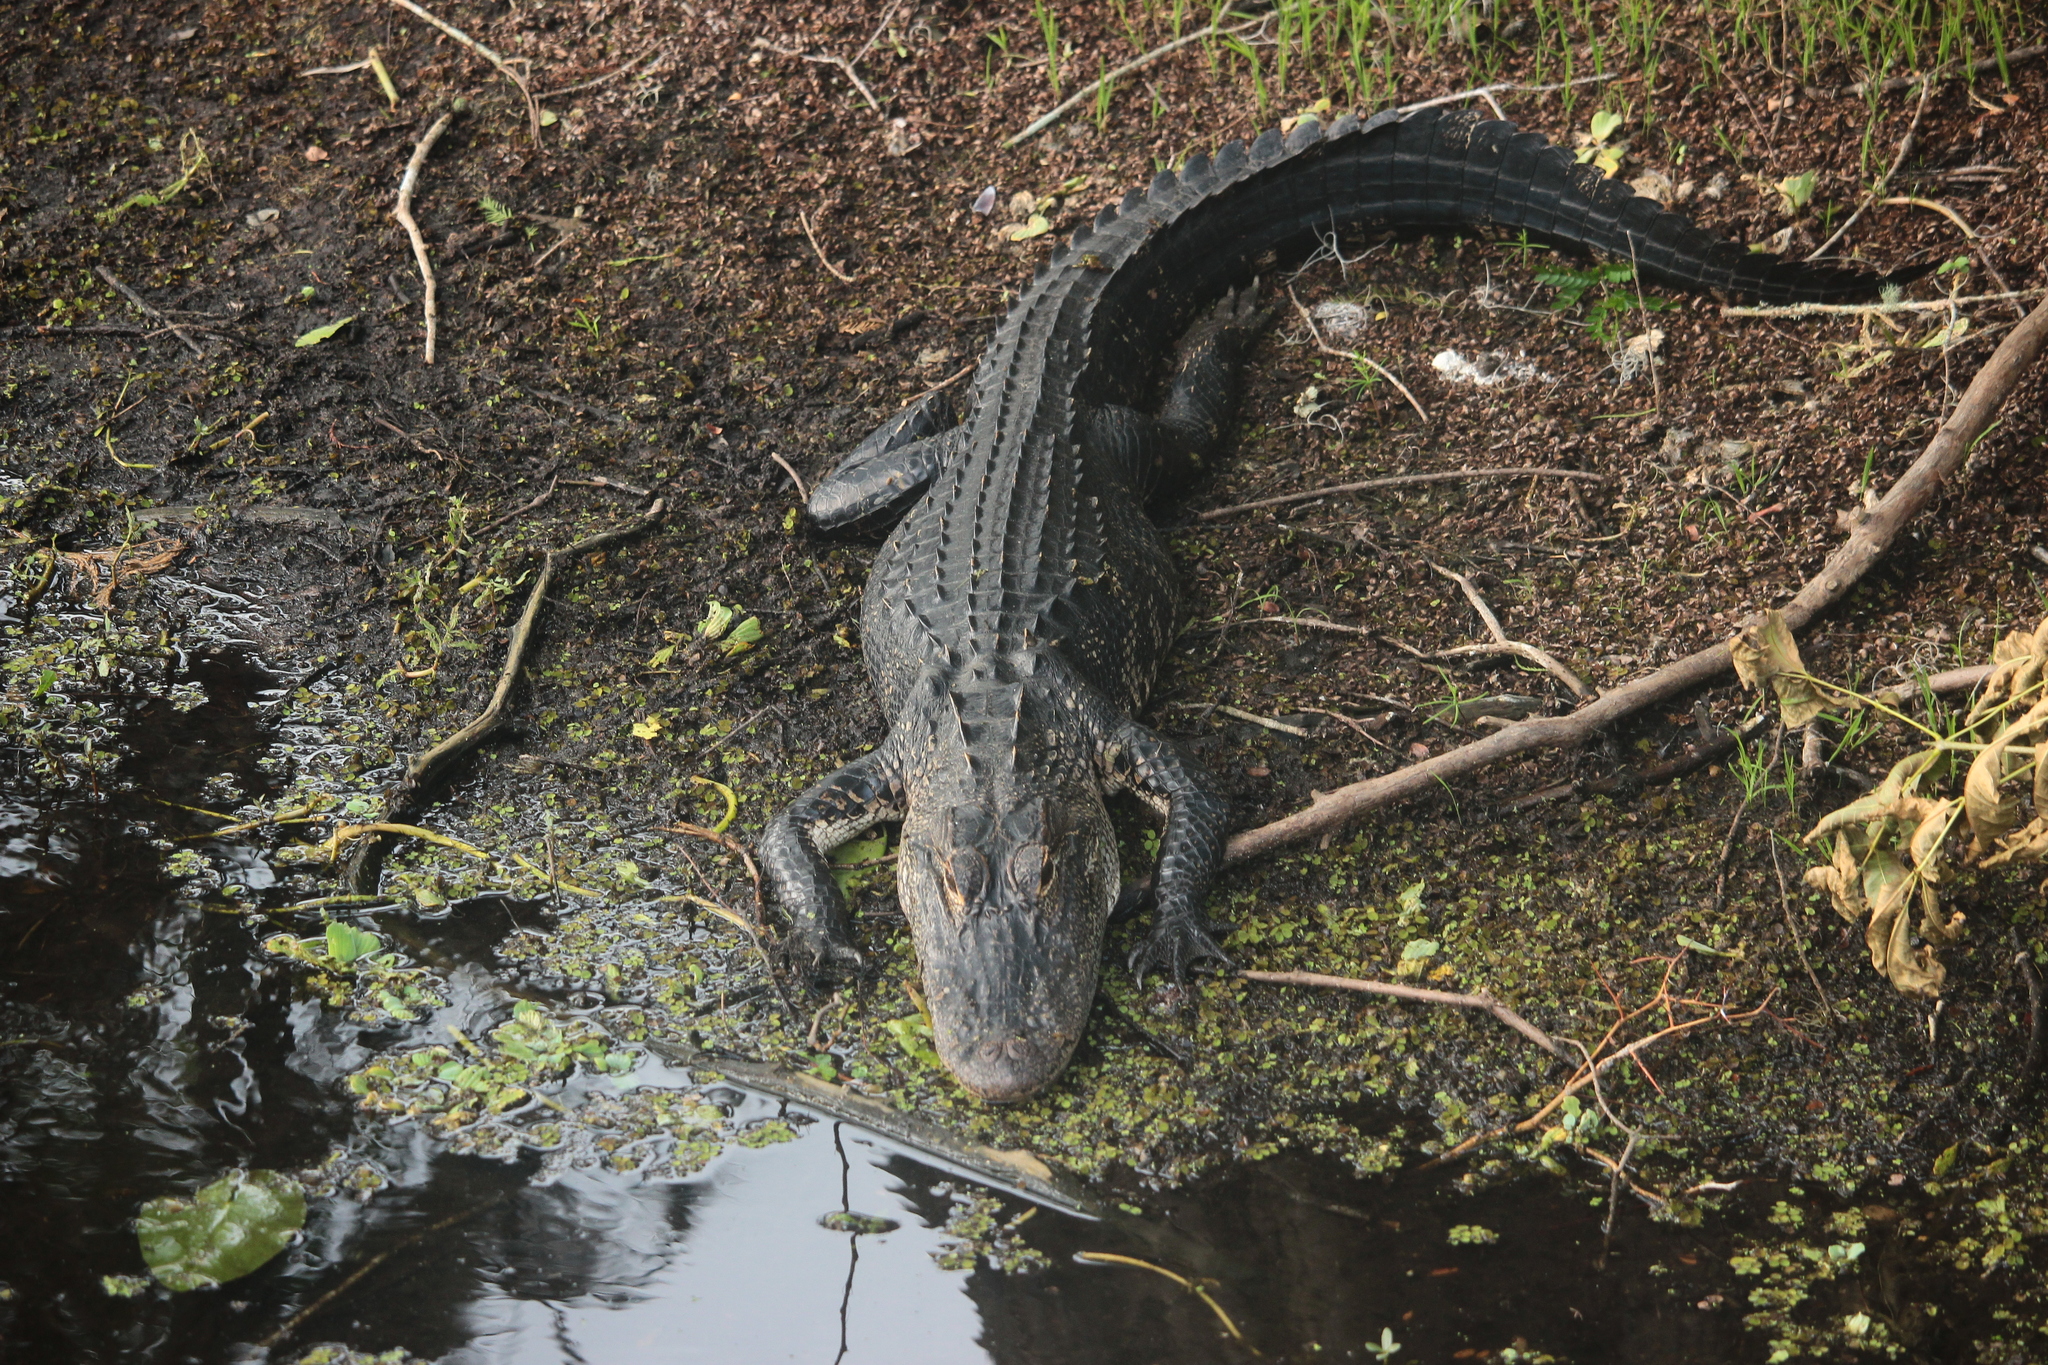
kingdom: Animalia
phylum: Chordata
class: Crocodylia
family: Alligatoridae
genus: Alligator
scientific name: Alligator mississippiensis
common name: American alligator
